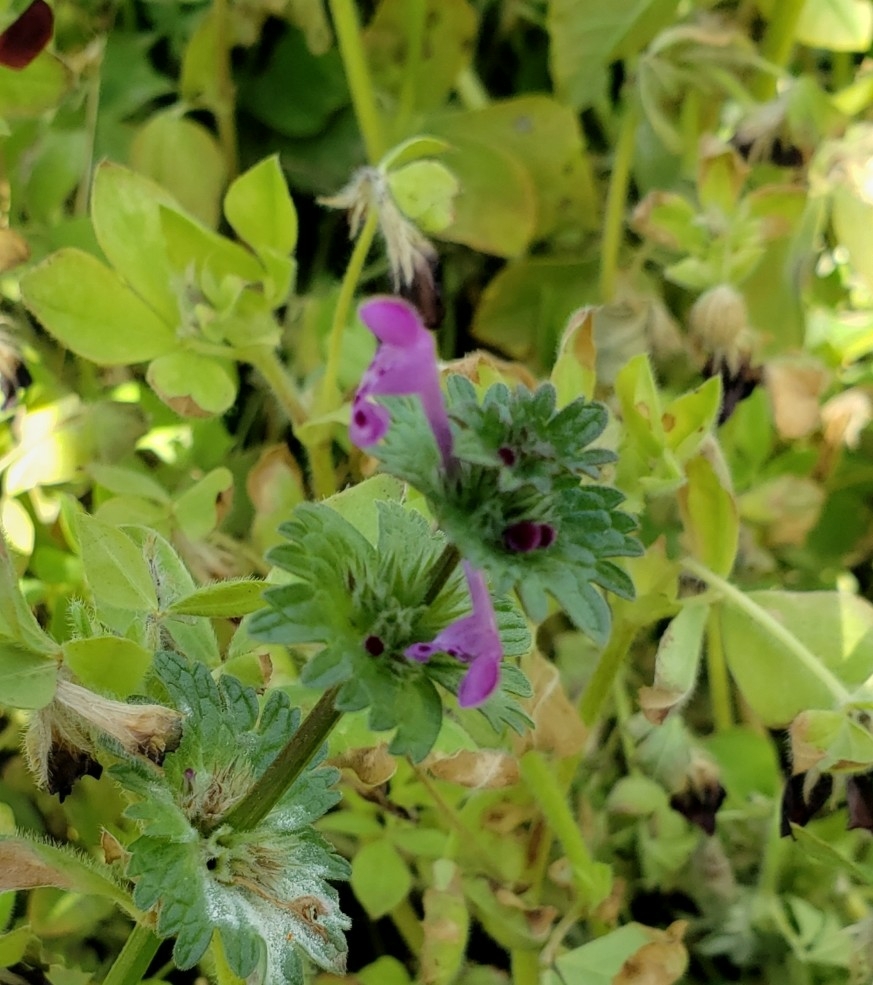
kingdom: Plantae
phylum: Tracheophyta
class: Magnoliopsida
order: Lamiales
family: Lamiaceae
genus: Lamium
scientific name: Lamium amplexicaule
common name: Henbit dead-nettle
